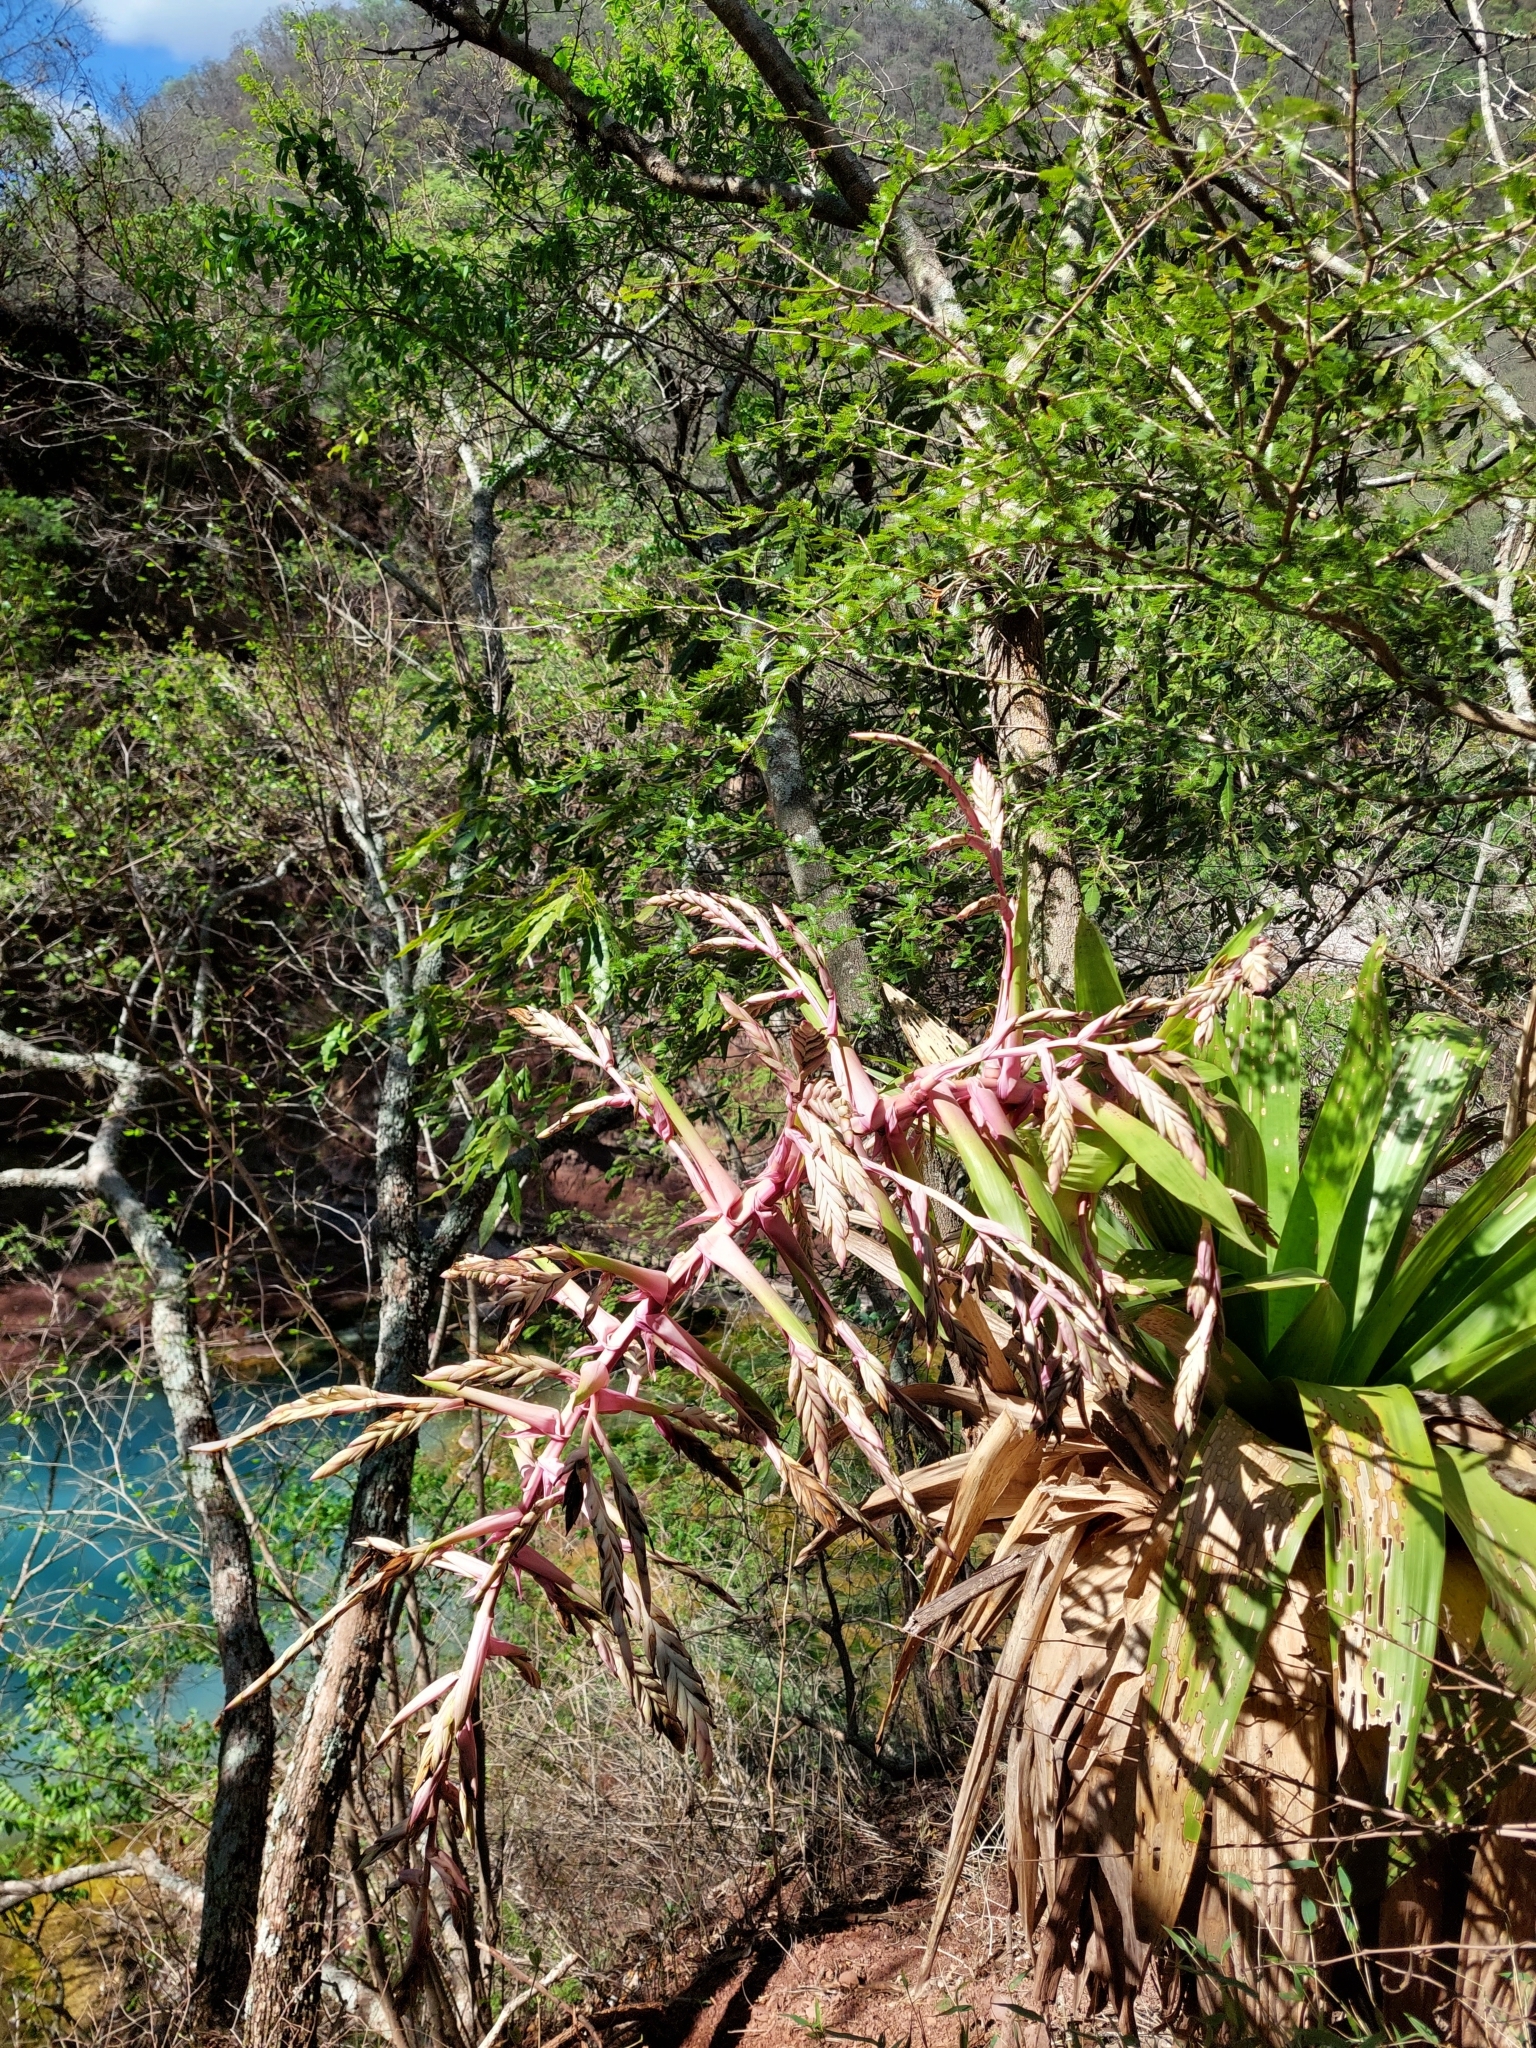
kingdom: Plantae
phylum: Tracheophyta
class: Liliopsida
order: Poales
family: Bromeliaceae
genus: Tillandsia
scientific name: Tillandsia australis
